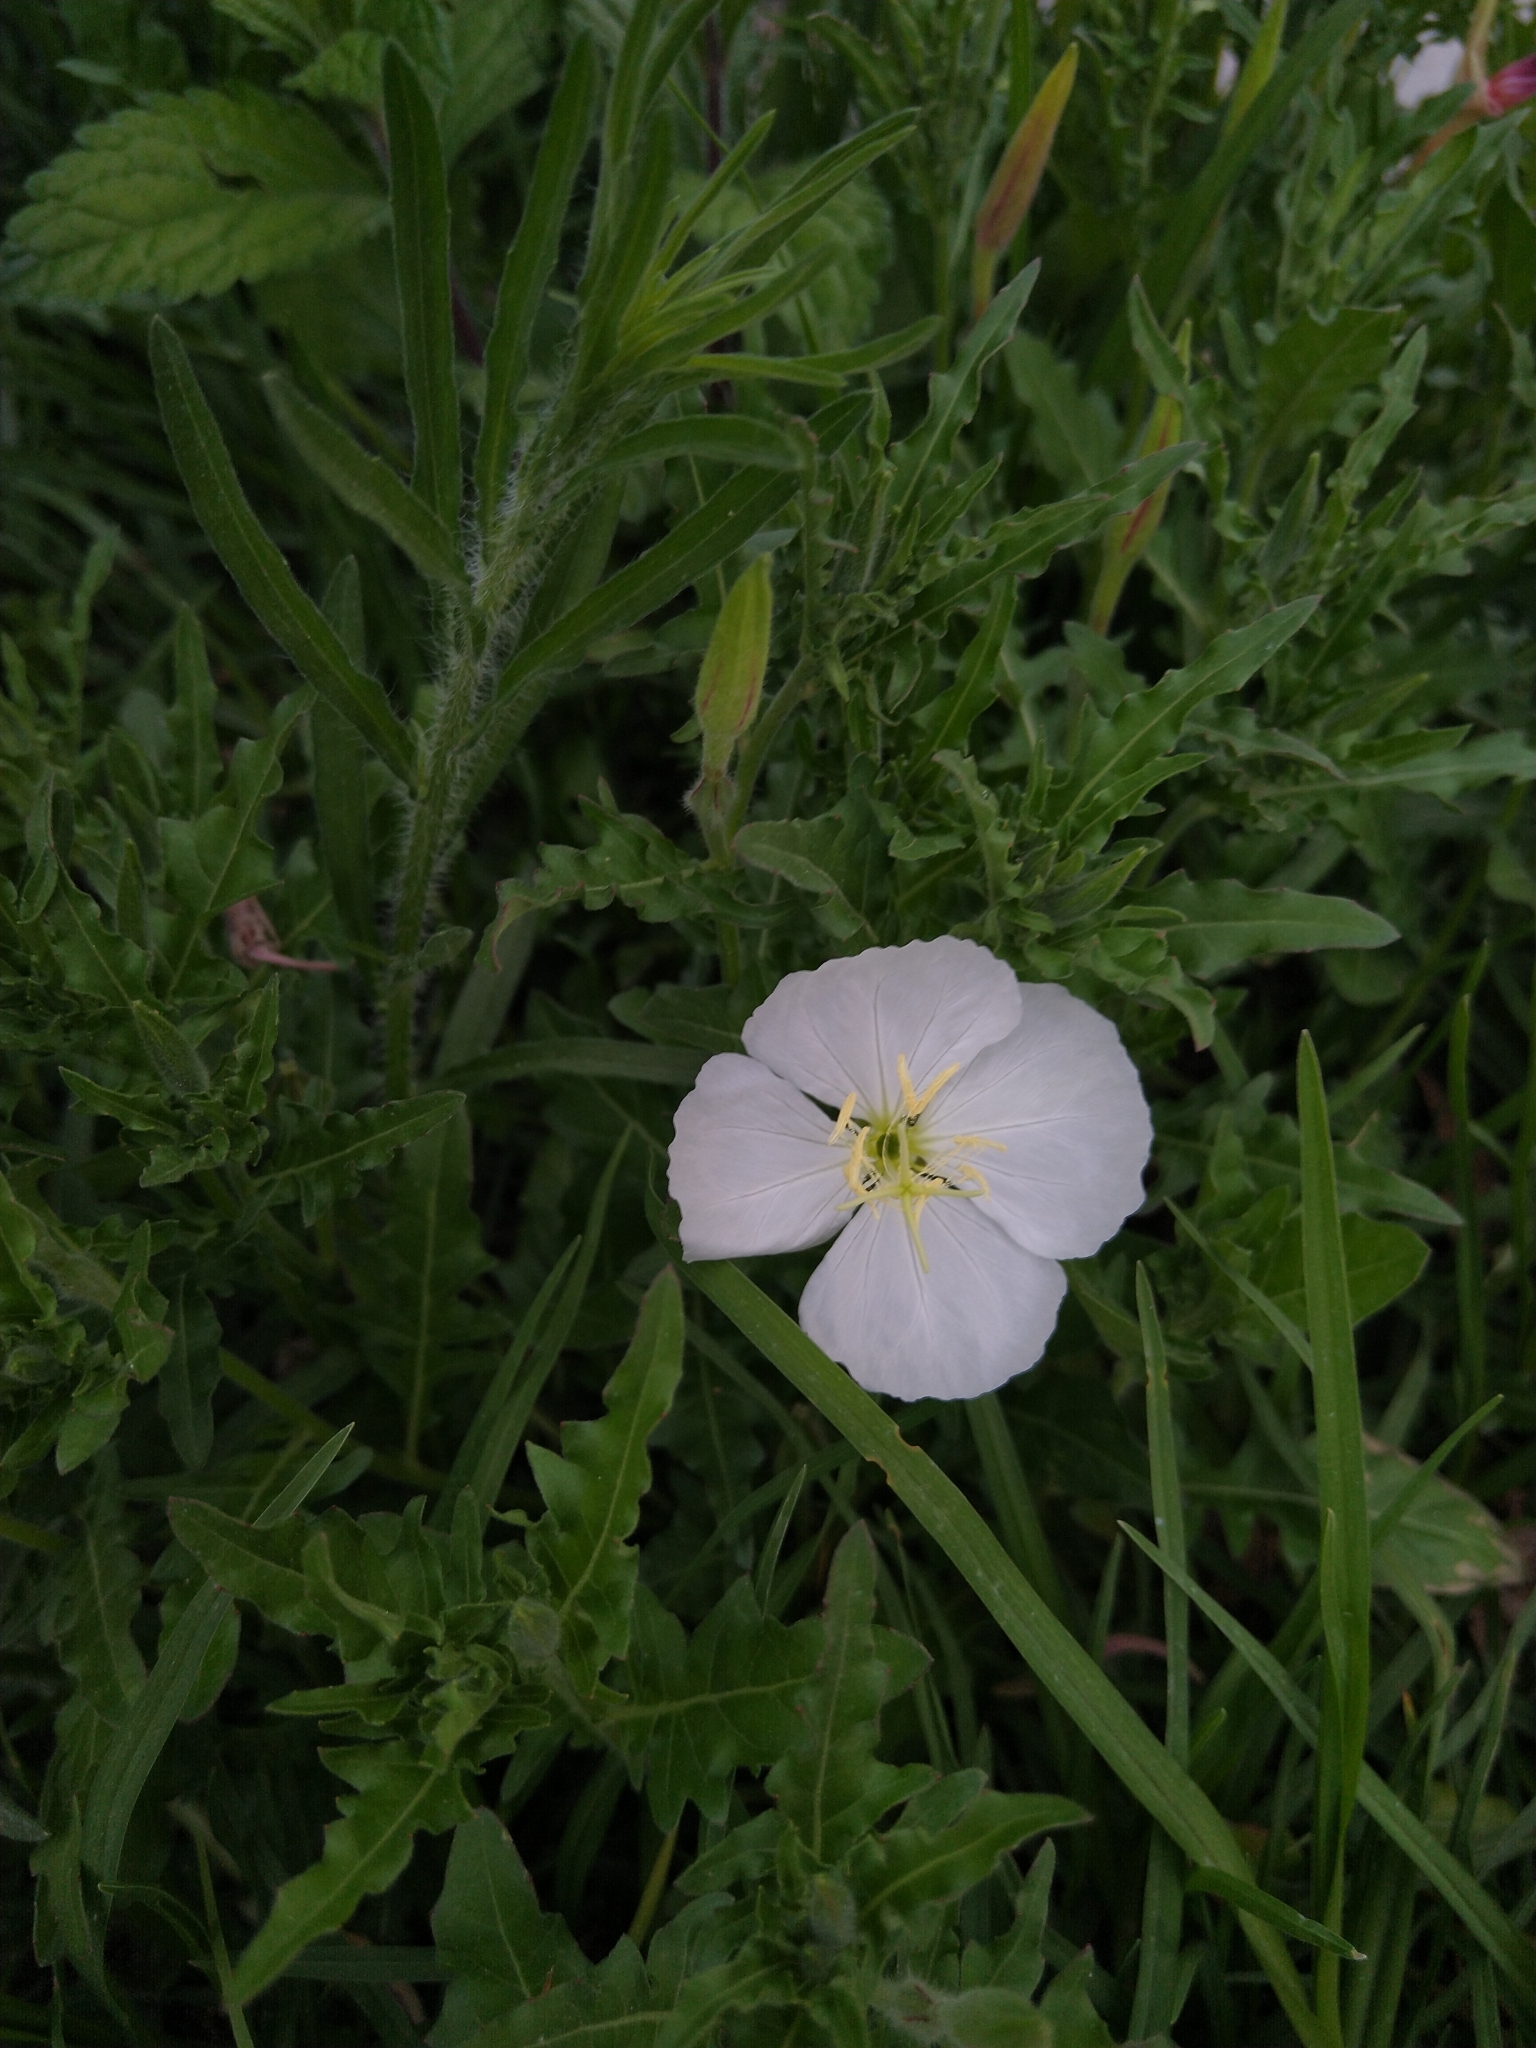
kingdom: Plantae
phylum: Tracheophyta
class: Magnoliopsida
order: Myrtales
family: Onagraceae
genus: Oenothera
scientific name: Oenothera tetraptera
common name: Four-wing evening-primrose
